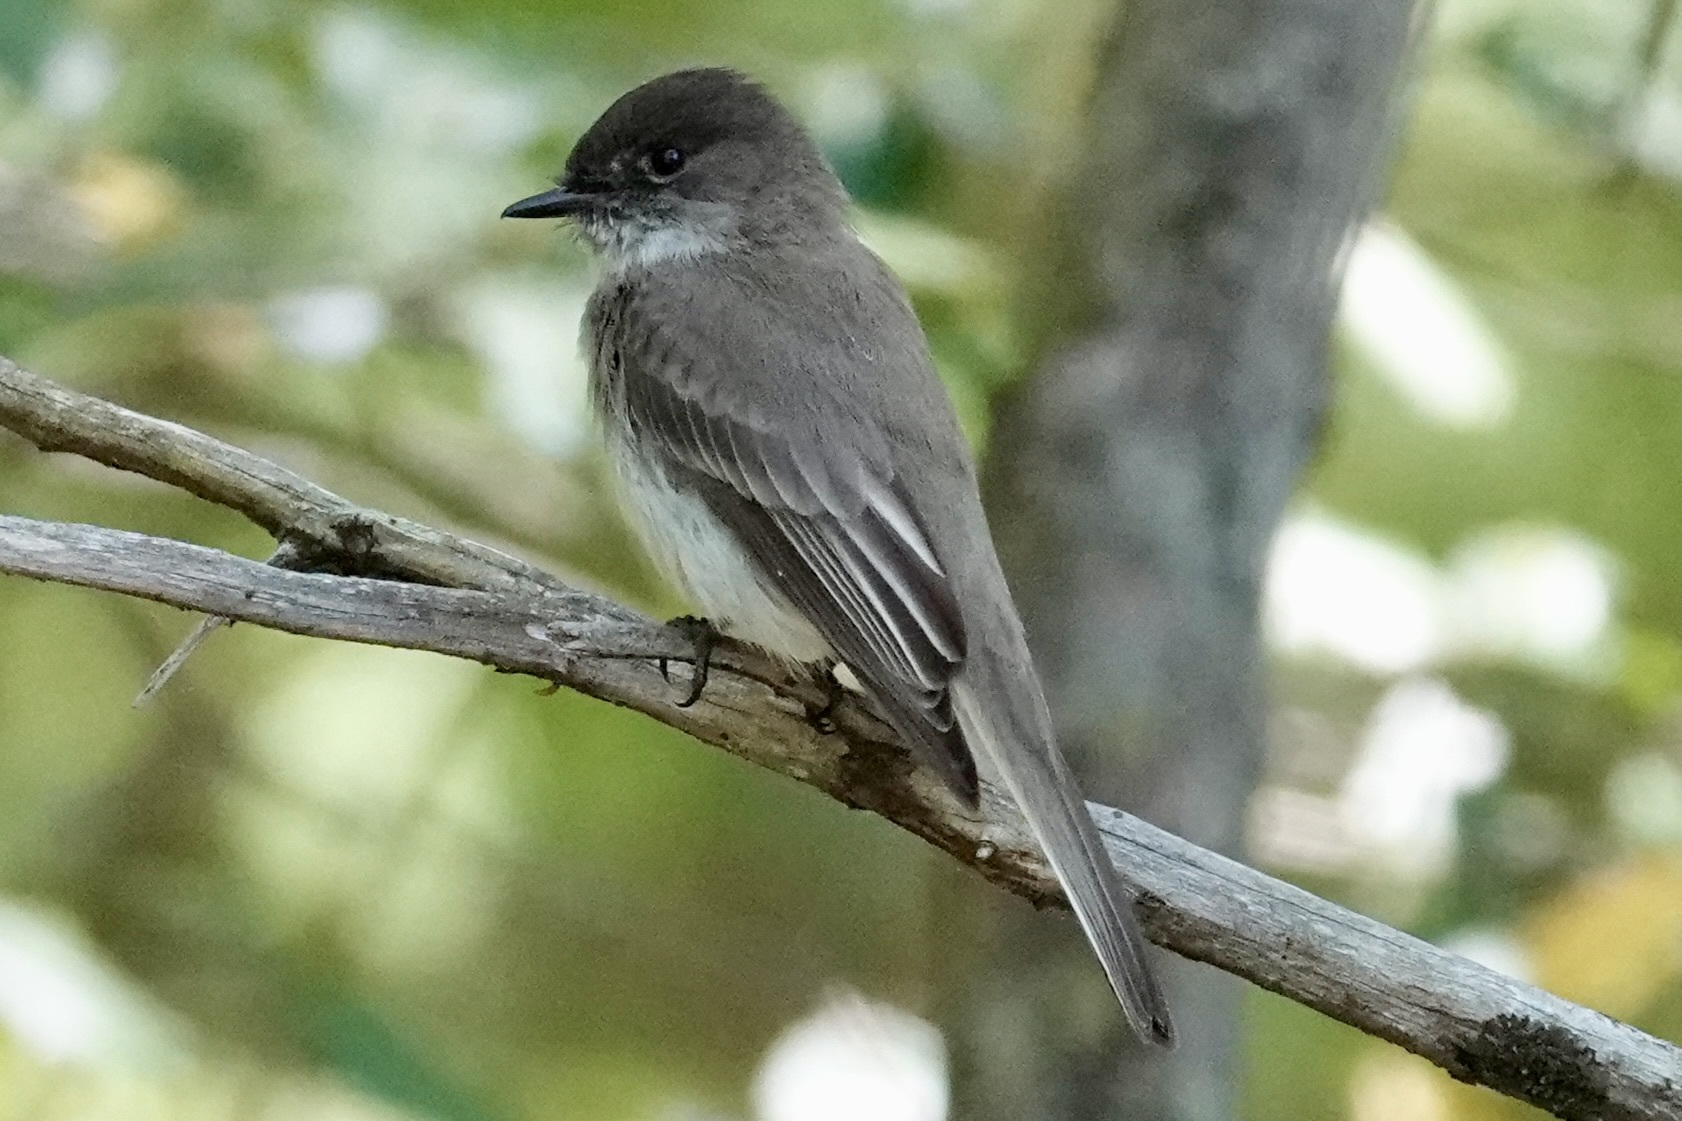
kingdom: Animalia
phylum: Chordata
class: Aves
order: Passeriformes
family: Tyrannidae
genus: Sayornis
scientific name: Sayornis phoebe
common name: Eastern phoebe
